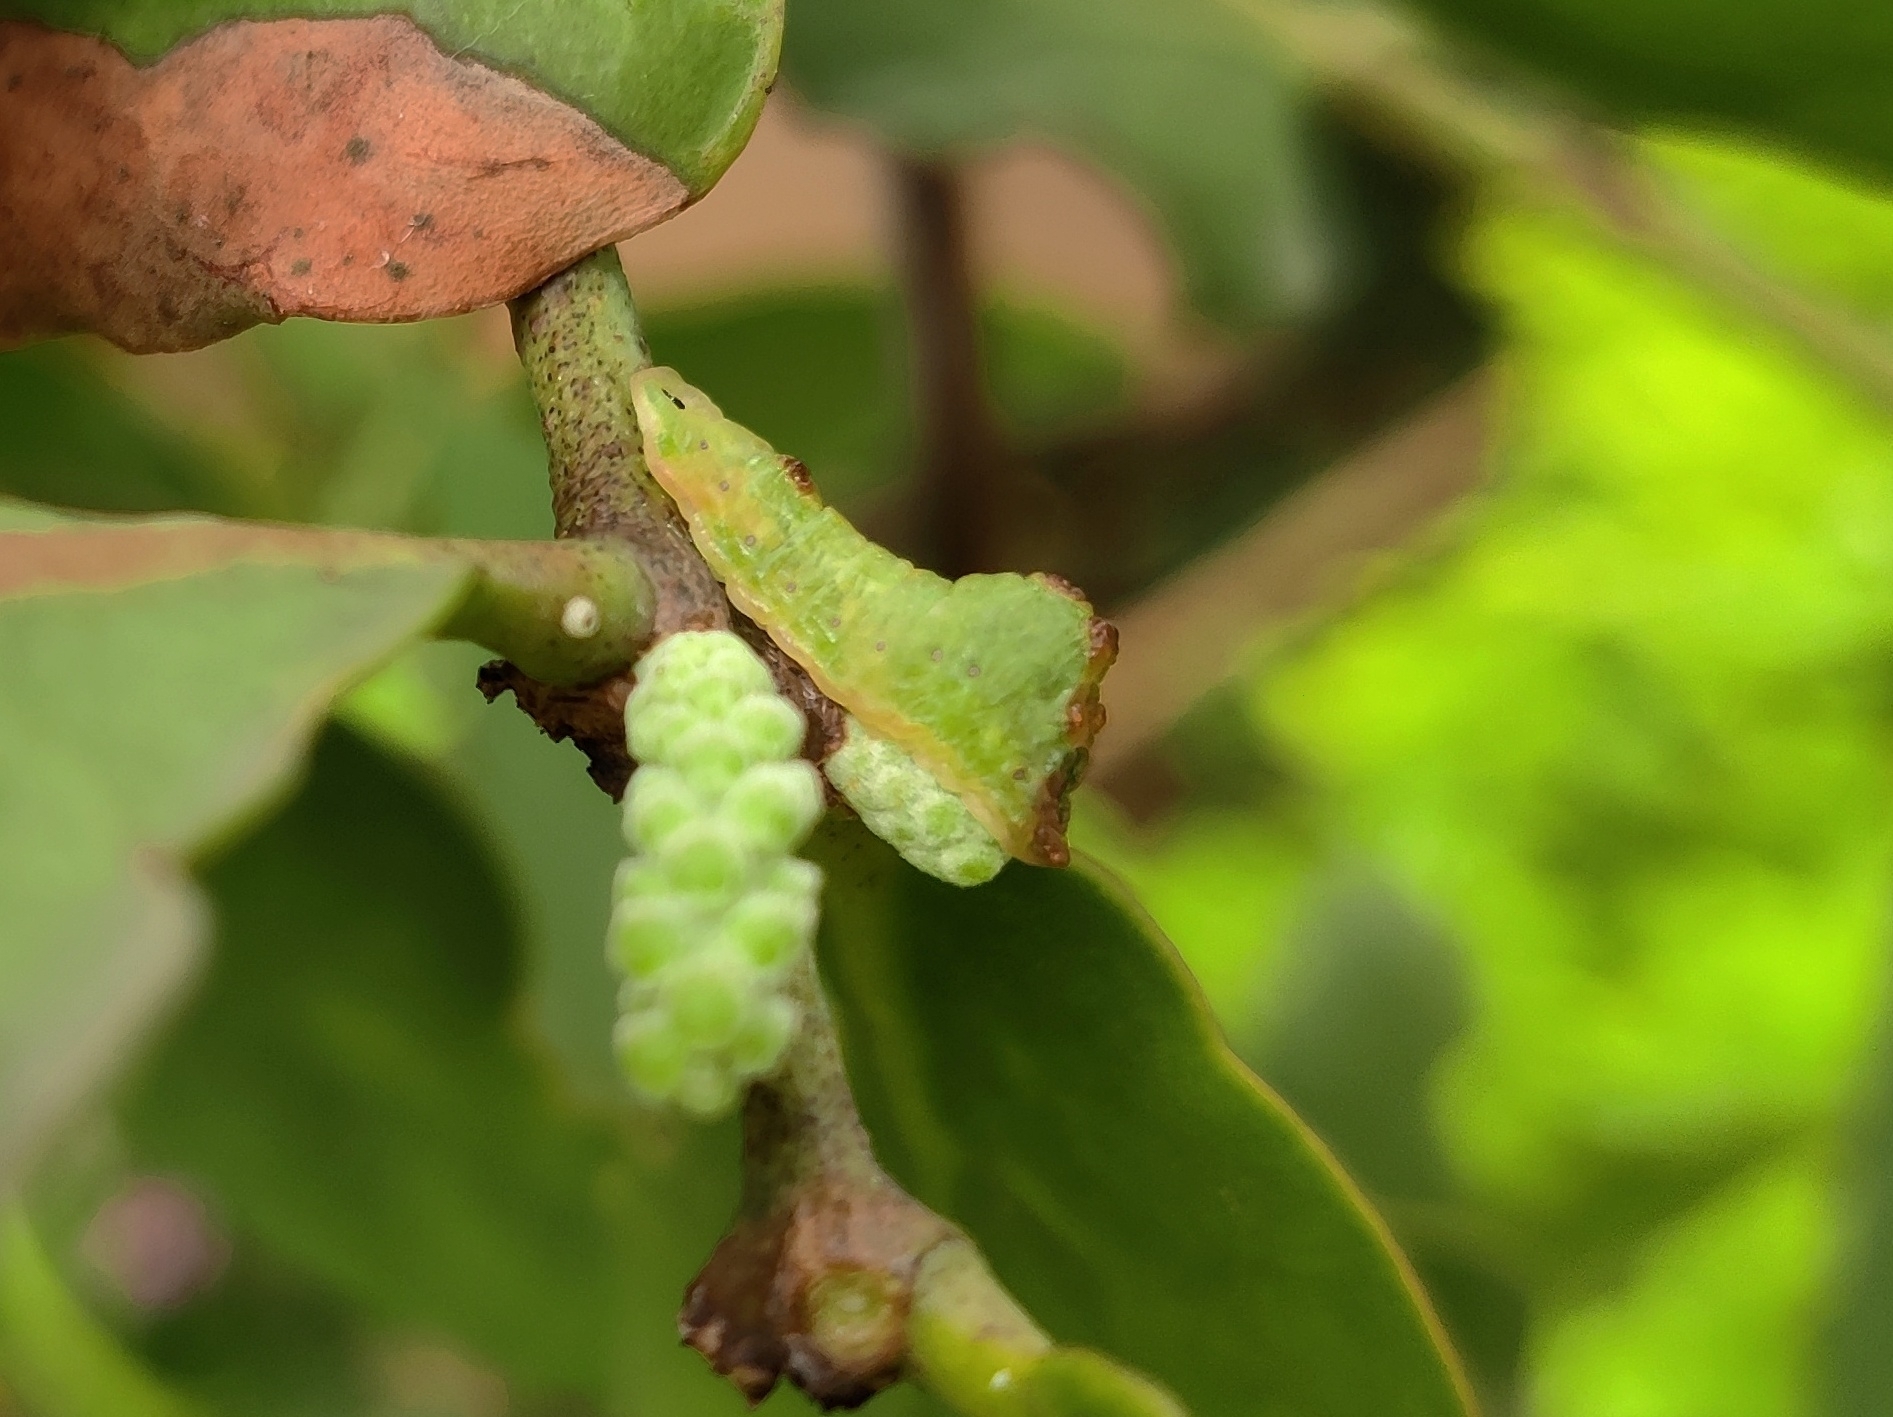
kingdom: Animalia
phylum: Arthropoda
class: Insecta
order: Lepidoptera
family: Lycaenidae
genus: Tajuria
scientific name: Tajuria cippus
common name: Peacock royal
